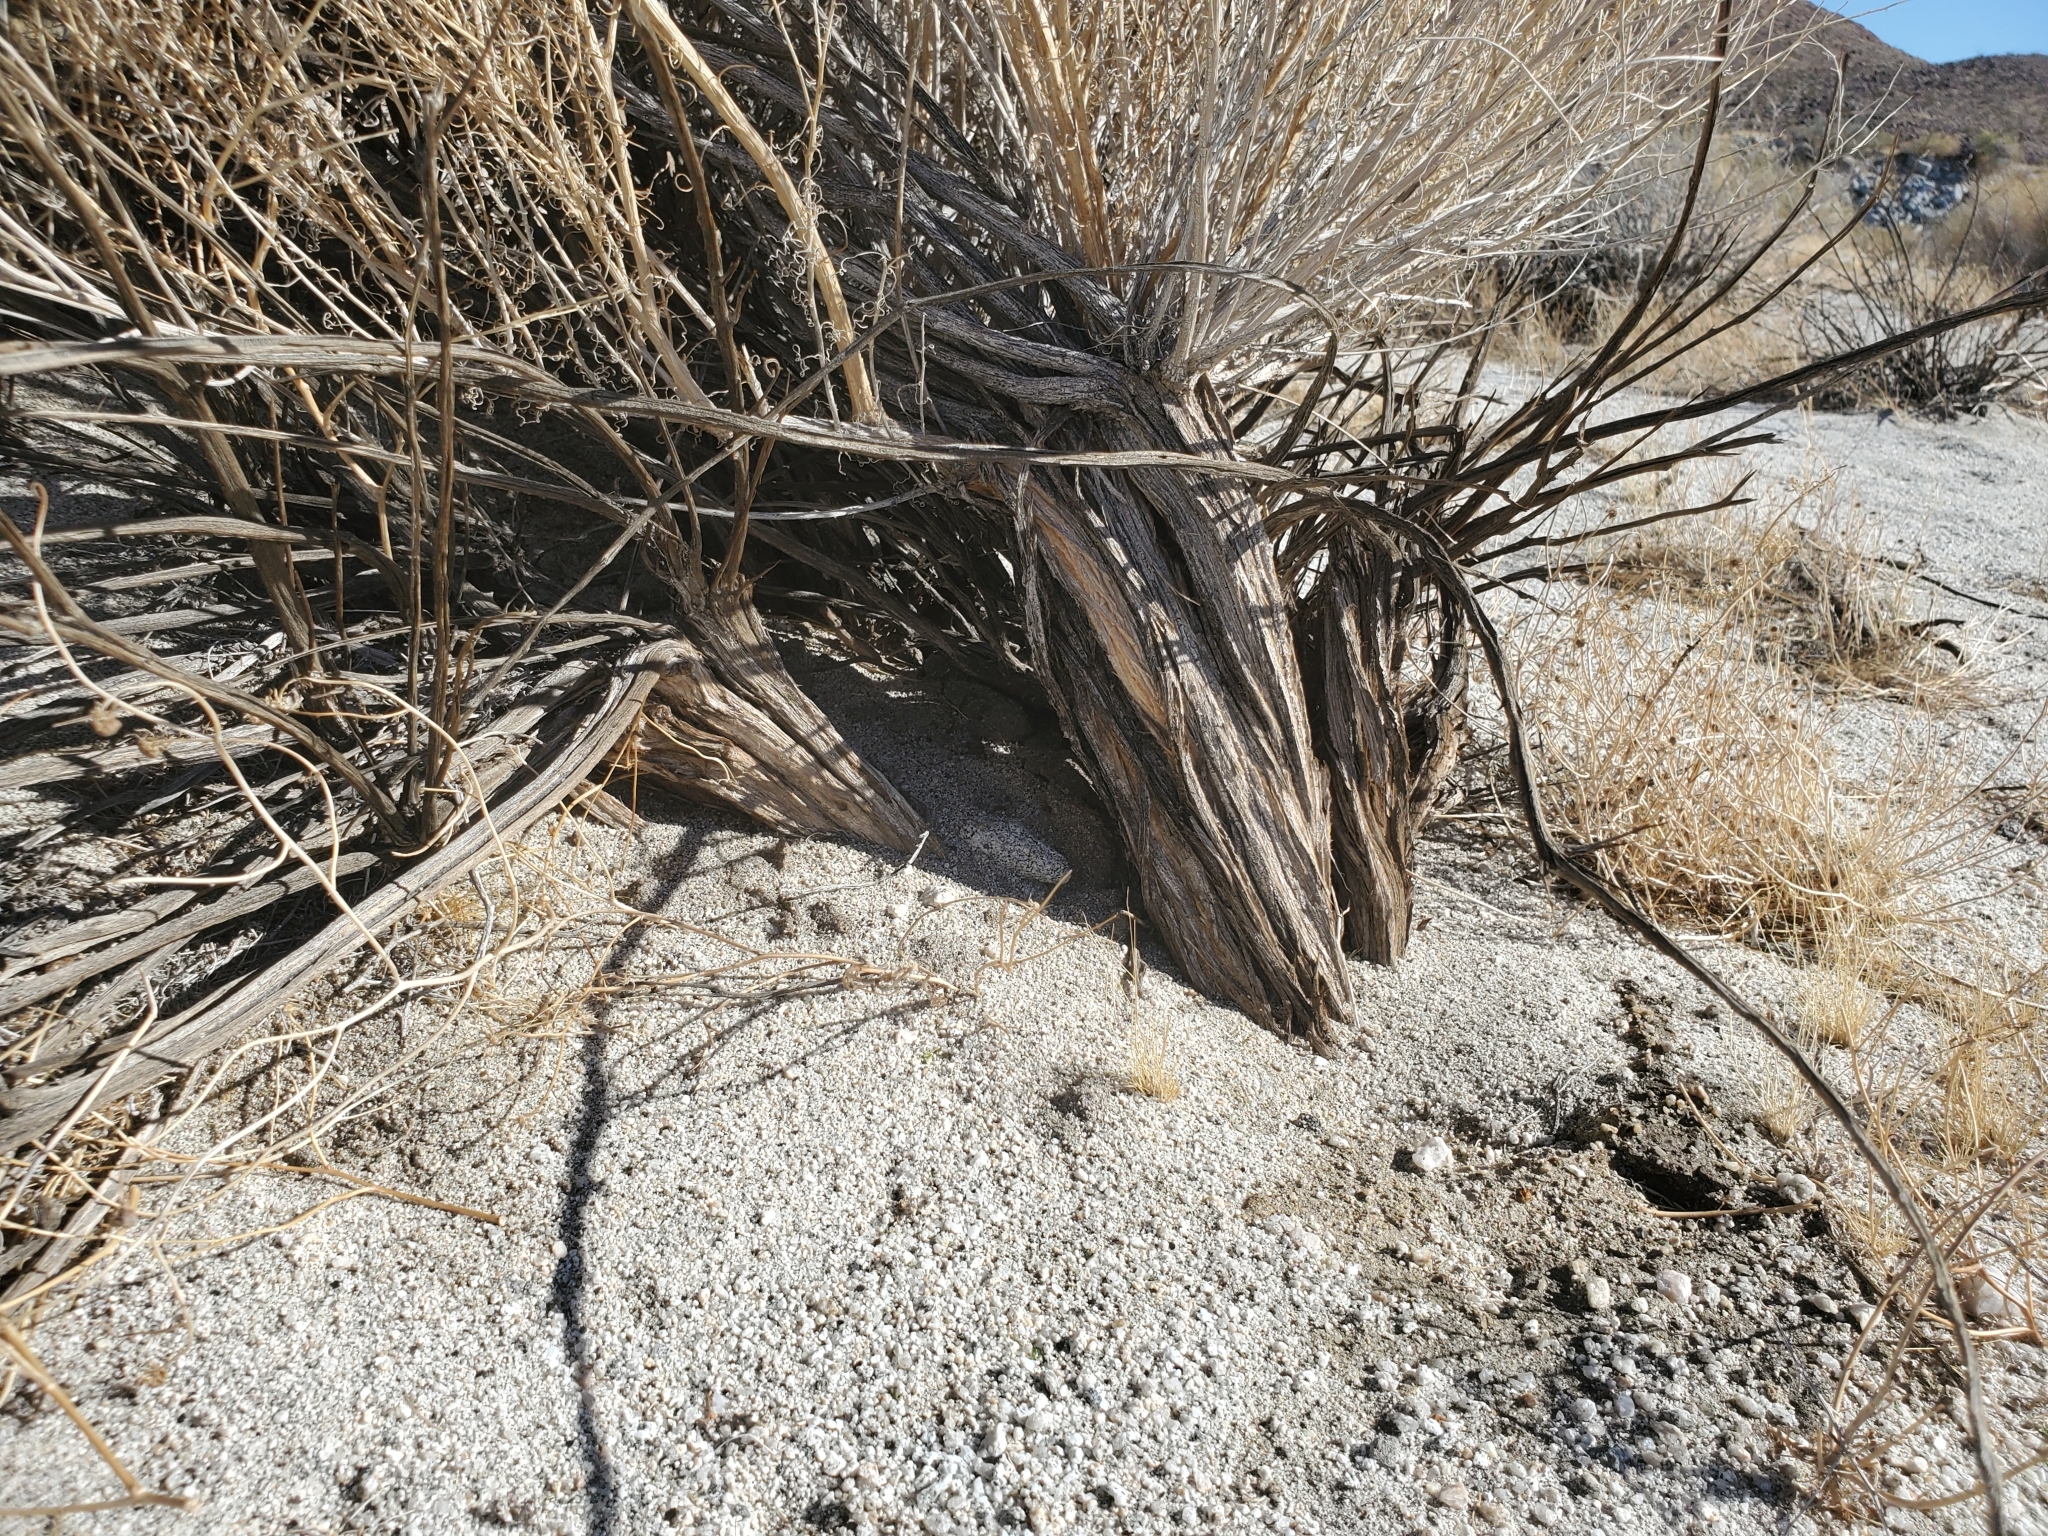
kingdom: Plantae
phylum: Tracheophyta
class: Magnoliopsida
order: Asterales
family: Asteraceae
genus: Ambrosia
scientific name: Ambrosia salsola
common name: Burrobrush
